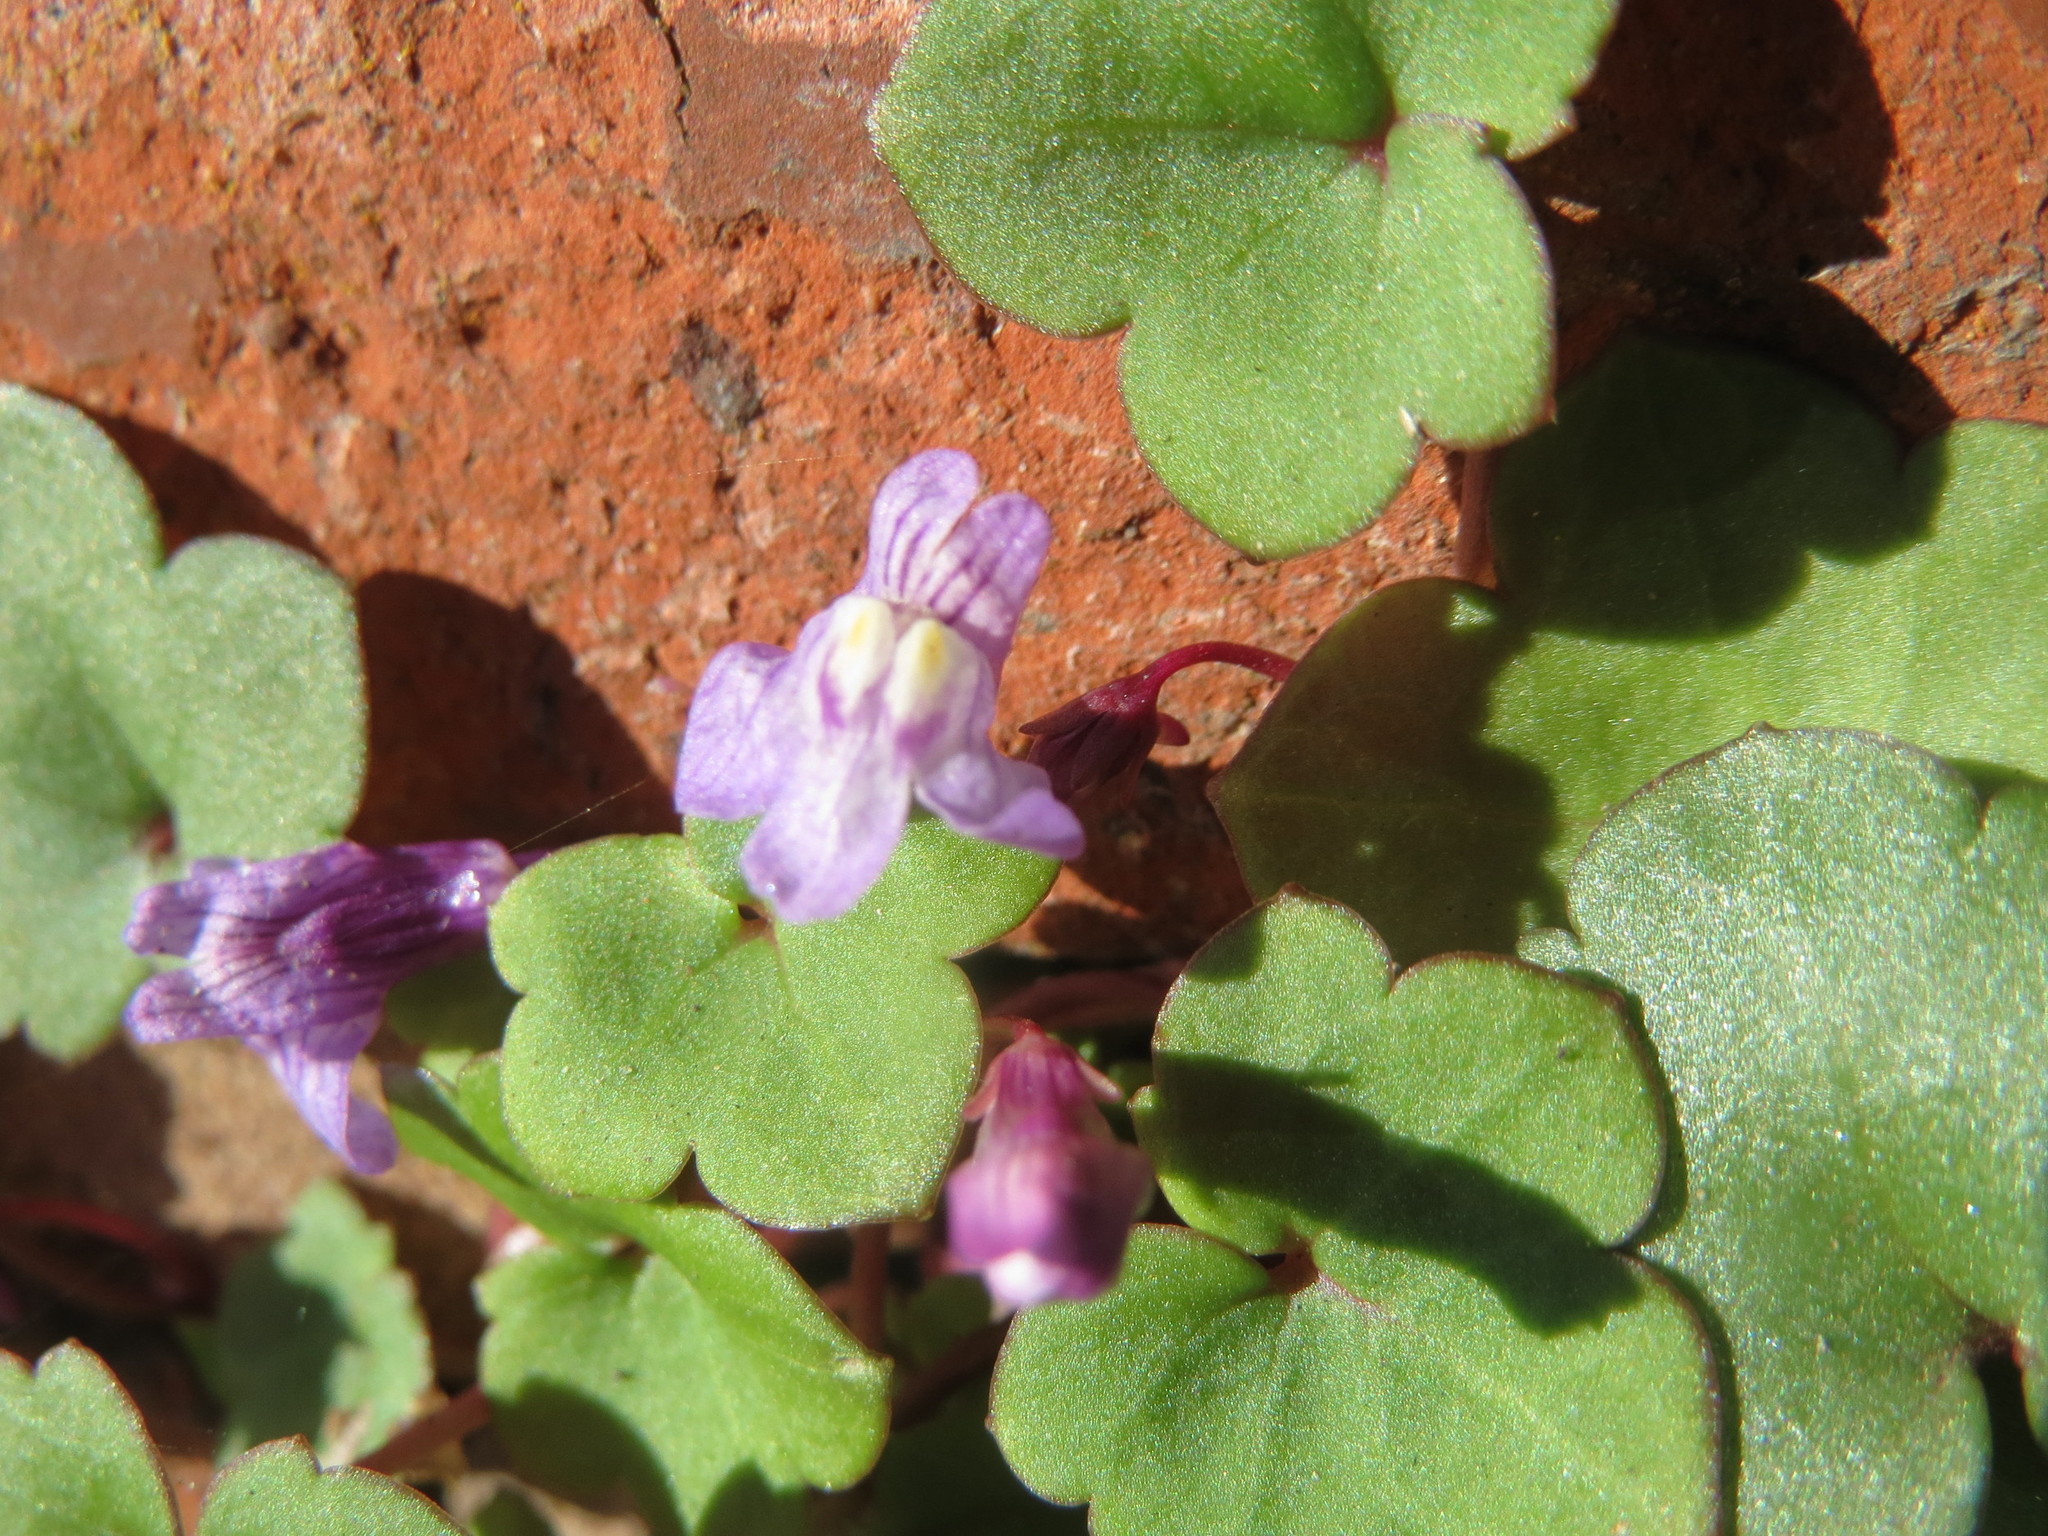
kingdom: Plantae
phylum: Tracheophyta
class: Magnoliopsida
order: Lamiales
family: Plantaginaceae
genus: Cymbalaria
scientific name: Cymbalaria muralis
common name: Ivy-leaved toadflax
